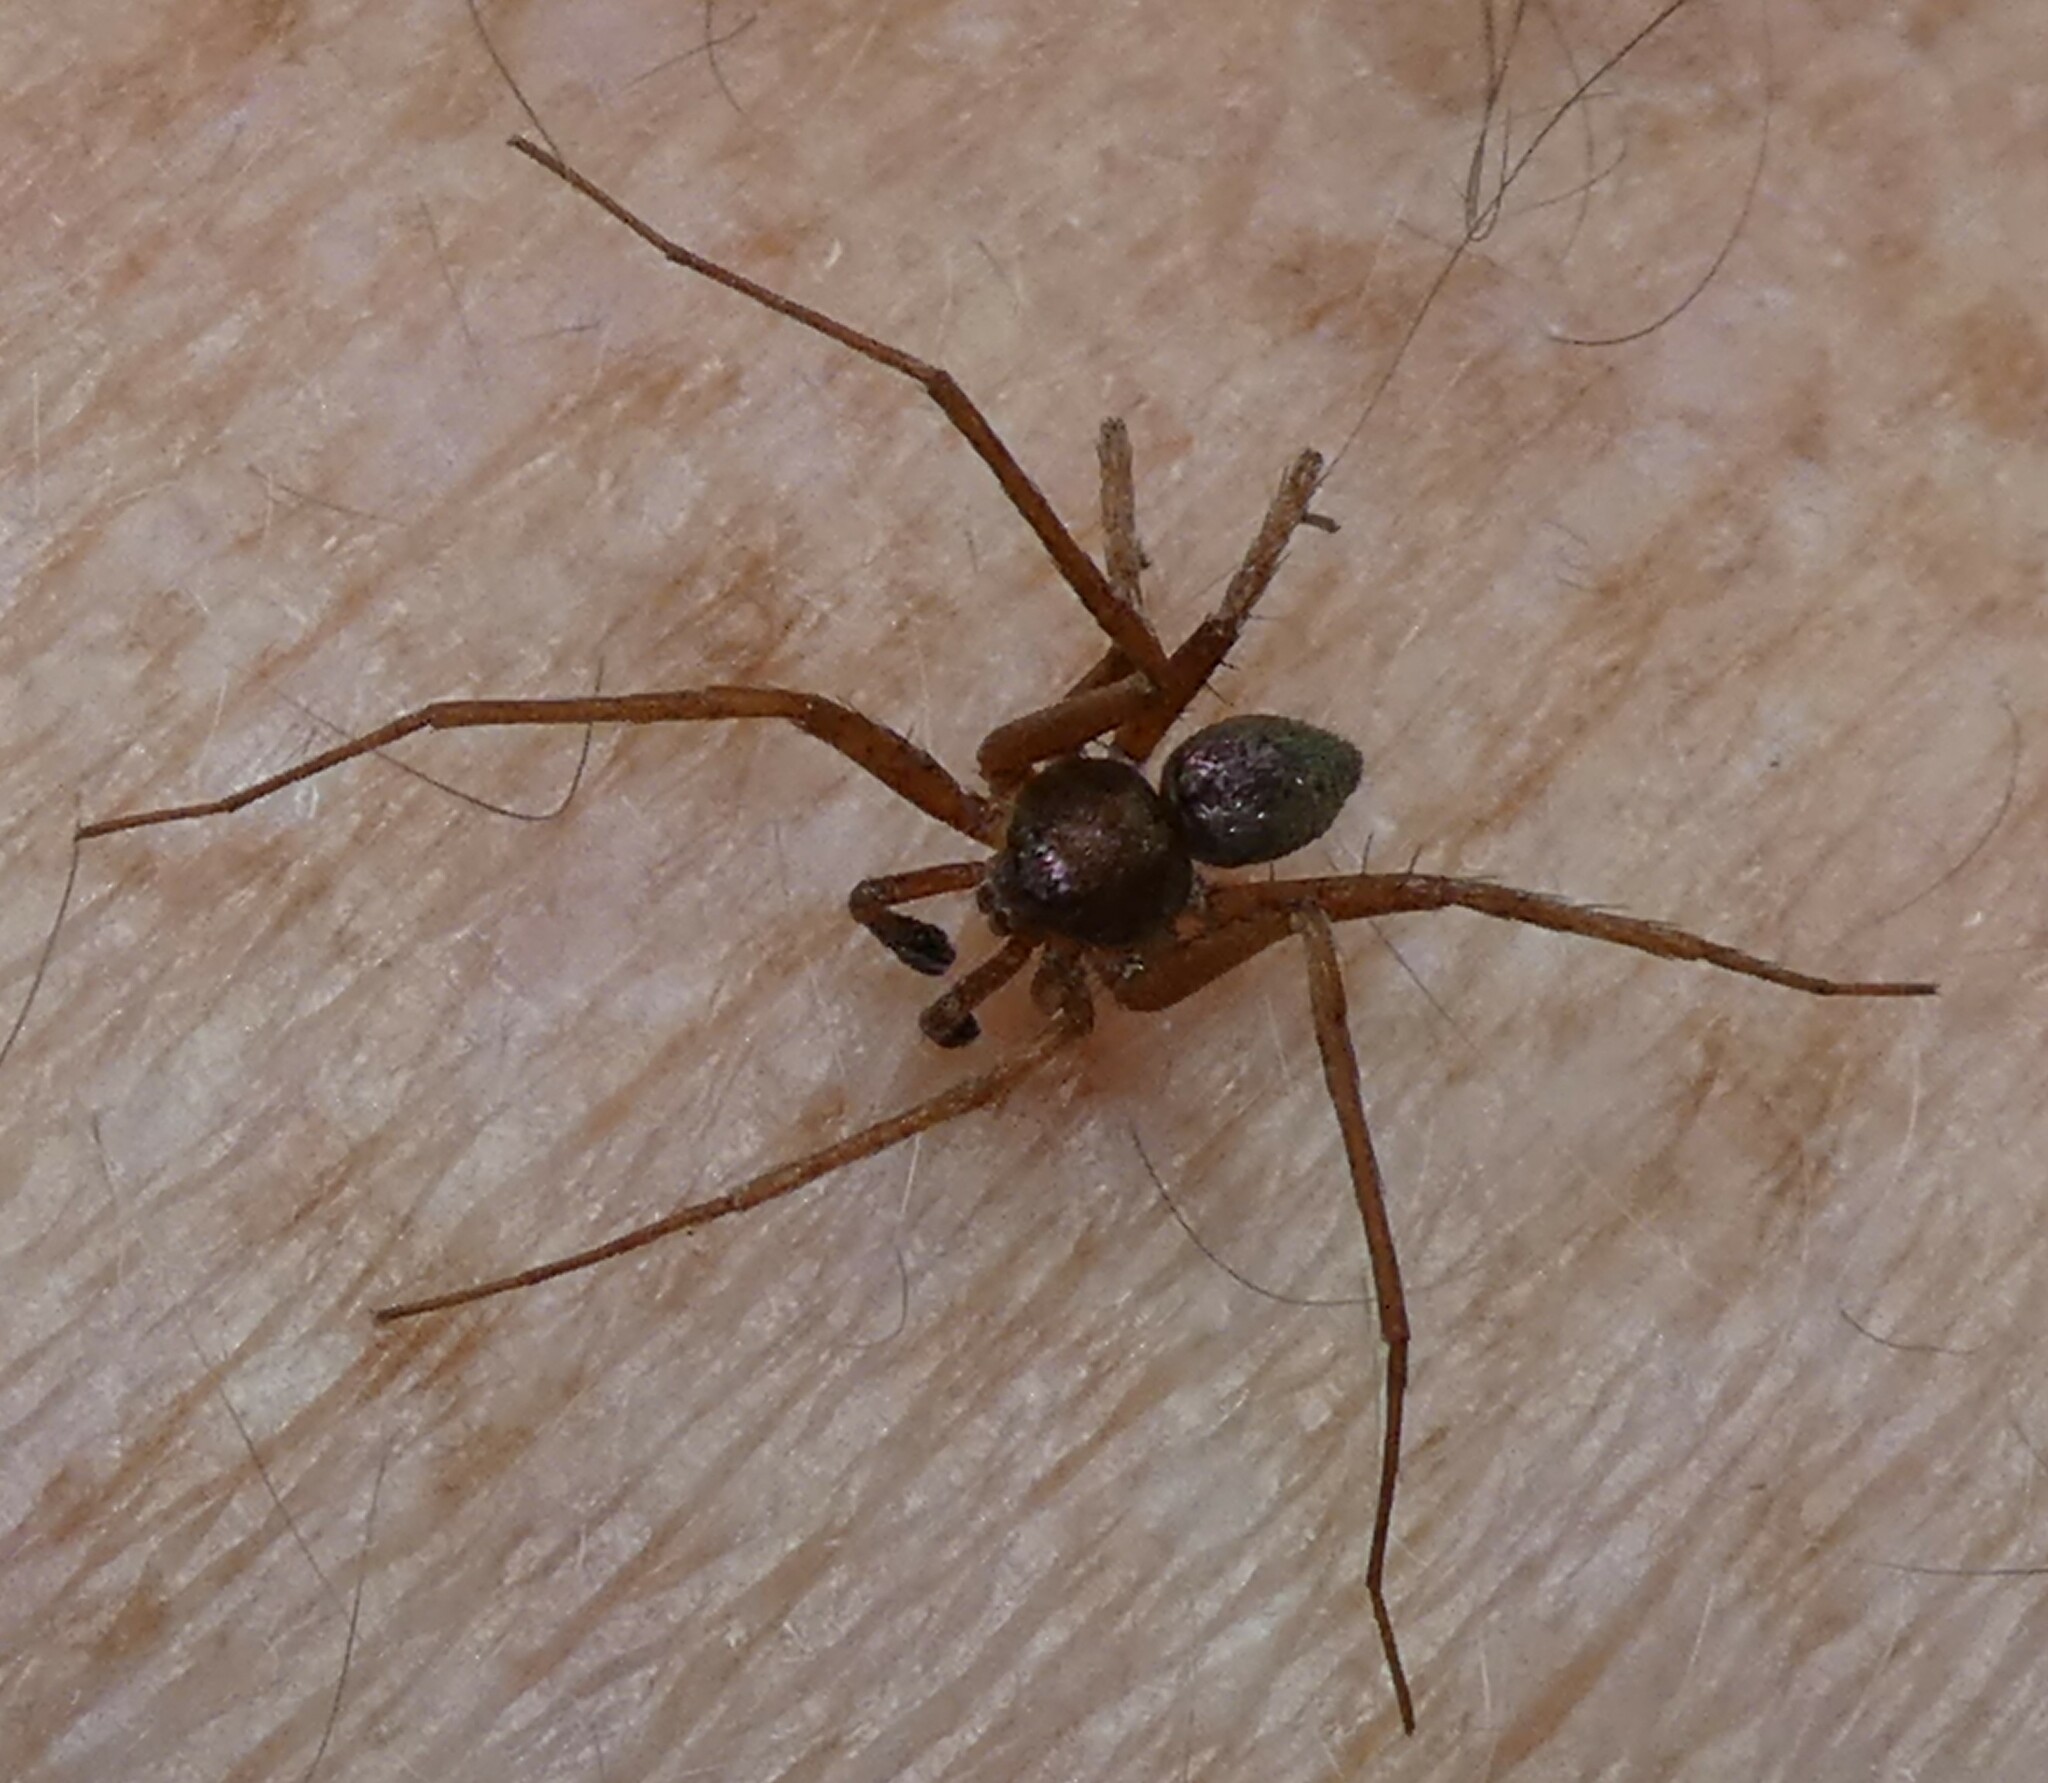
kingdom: Animalia
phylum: Arthropoda
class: Arachnida
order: Araneae
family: Philodromidae
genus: Philodromus
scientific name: Philodromus
